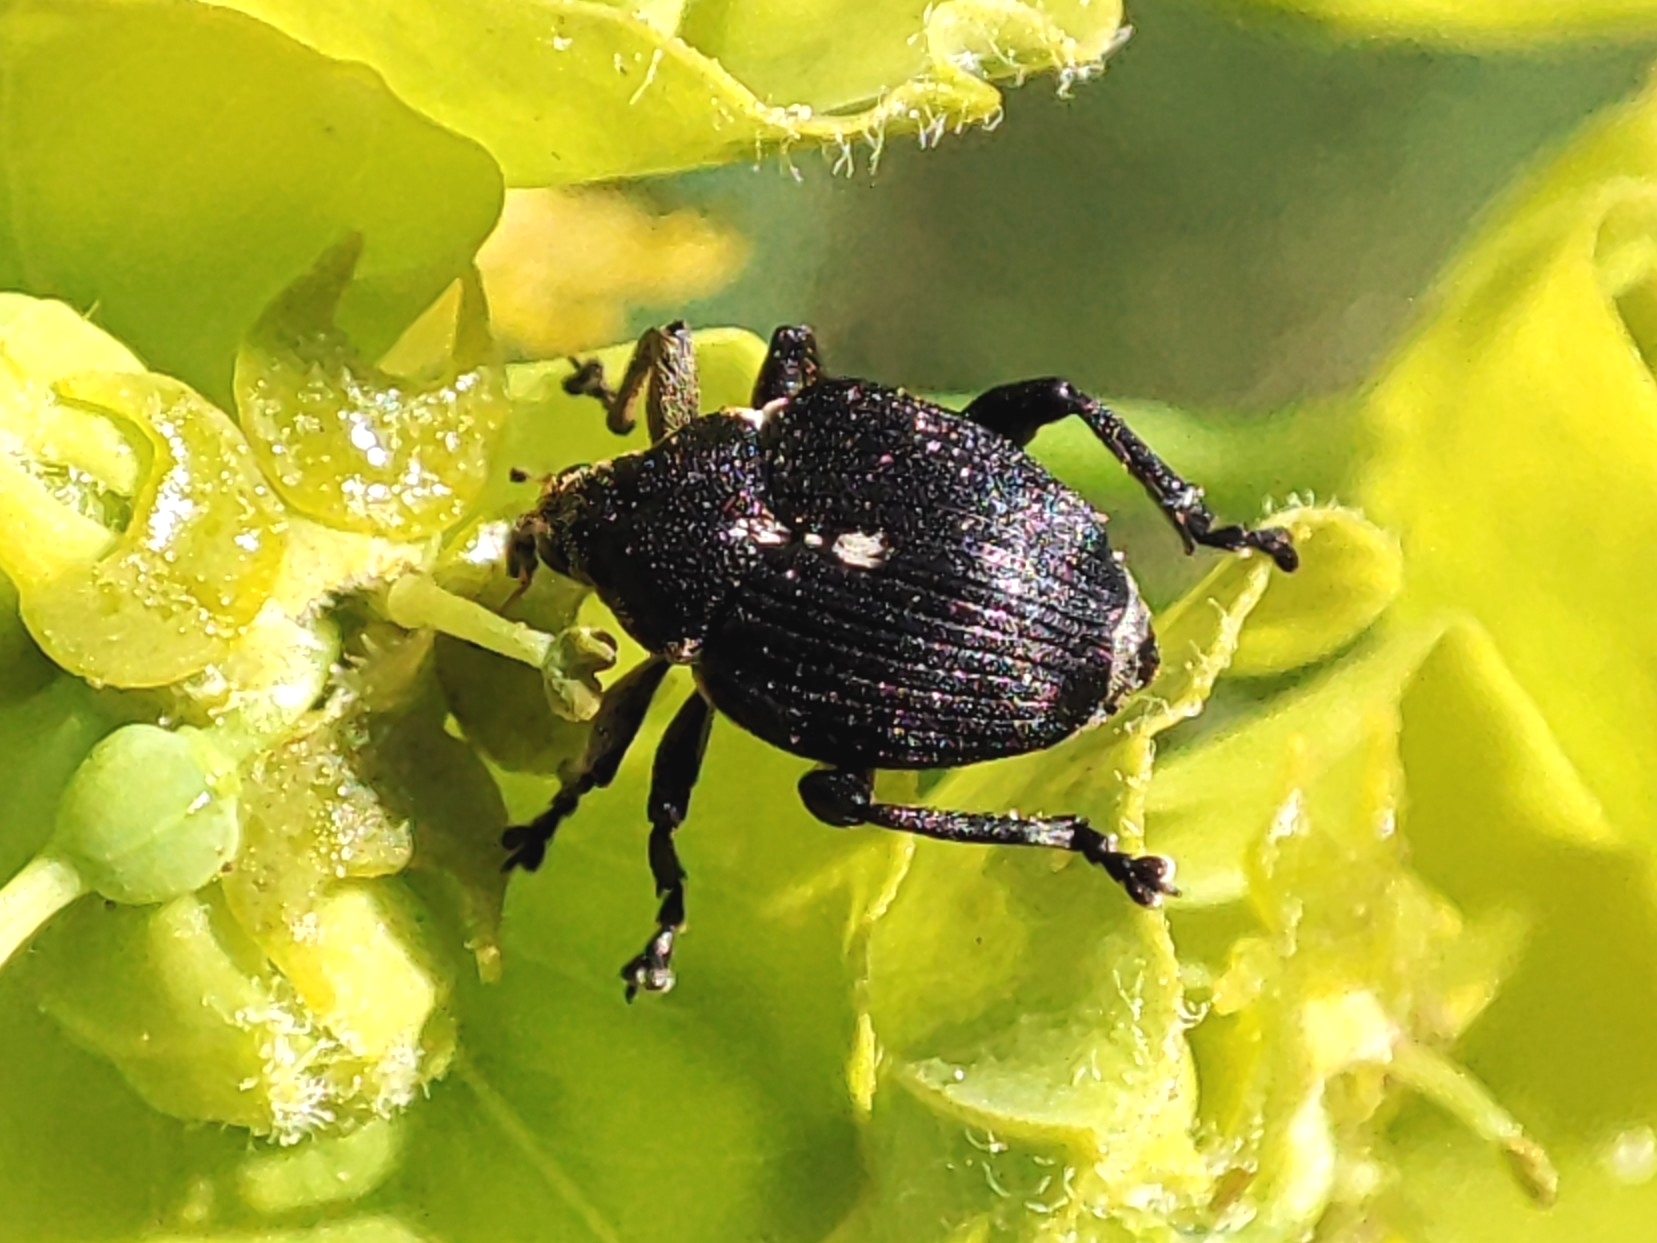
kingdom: Animalia
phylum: Arthropoda
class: Insecta
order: Coleoptera
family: Curculionidae
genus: Mononychus
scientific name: Mononychus punctumalbum
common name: Iris weevil
